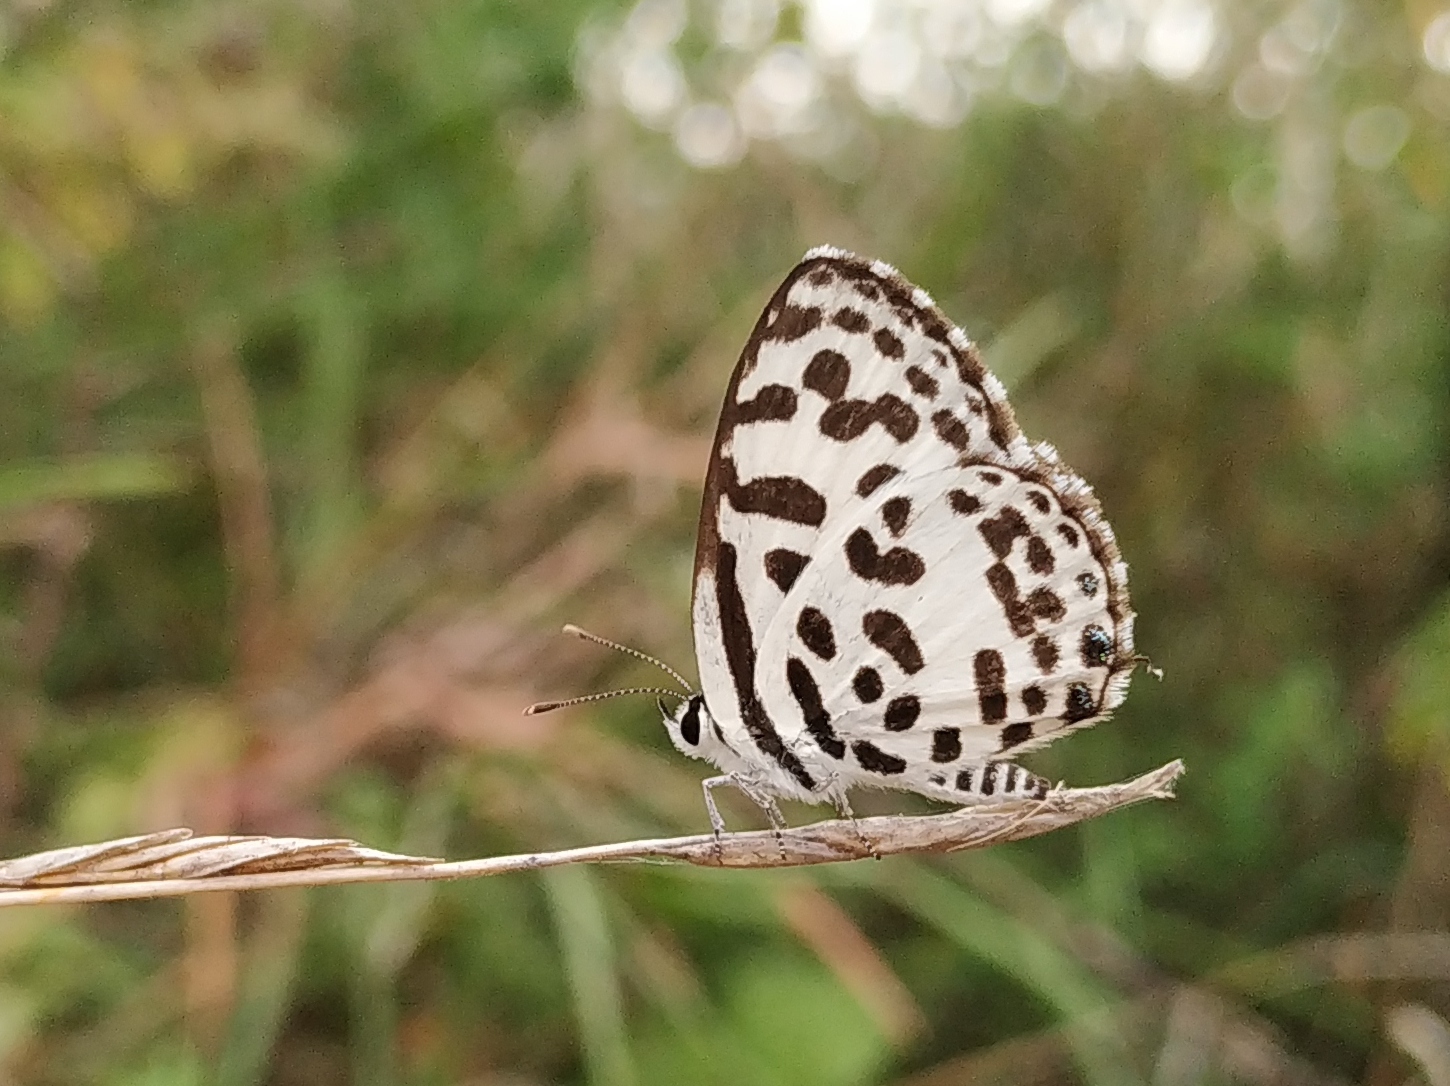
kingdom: Animalia
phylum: Arthropoda
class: Insecta
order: Lepidoptera
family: Lycaenidae
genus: Castalius
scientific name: Castalius rosimon
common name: Common pierrot
